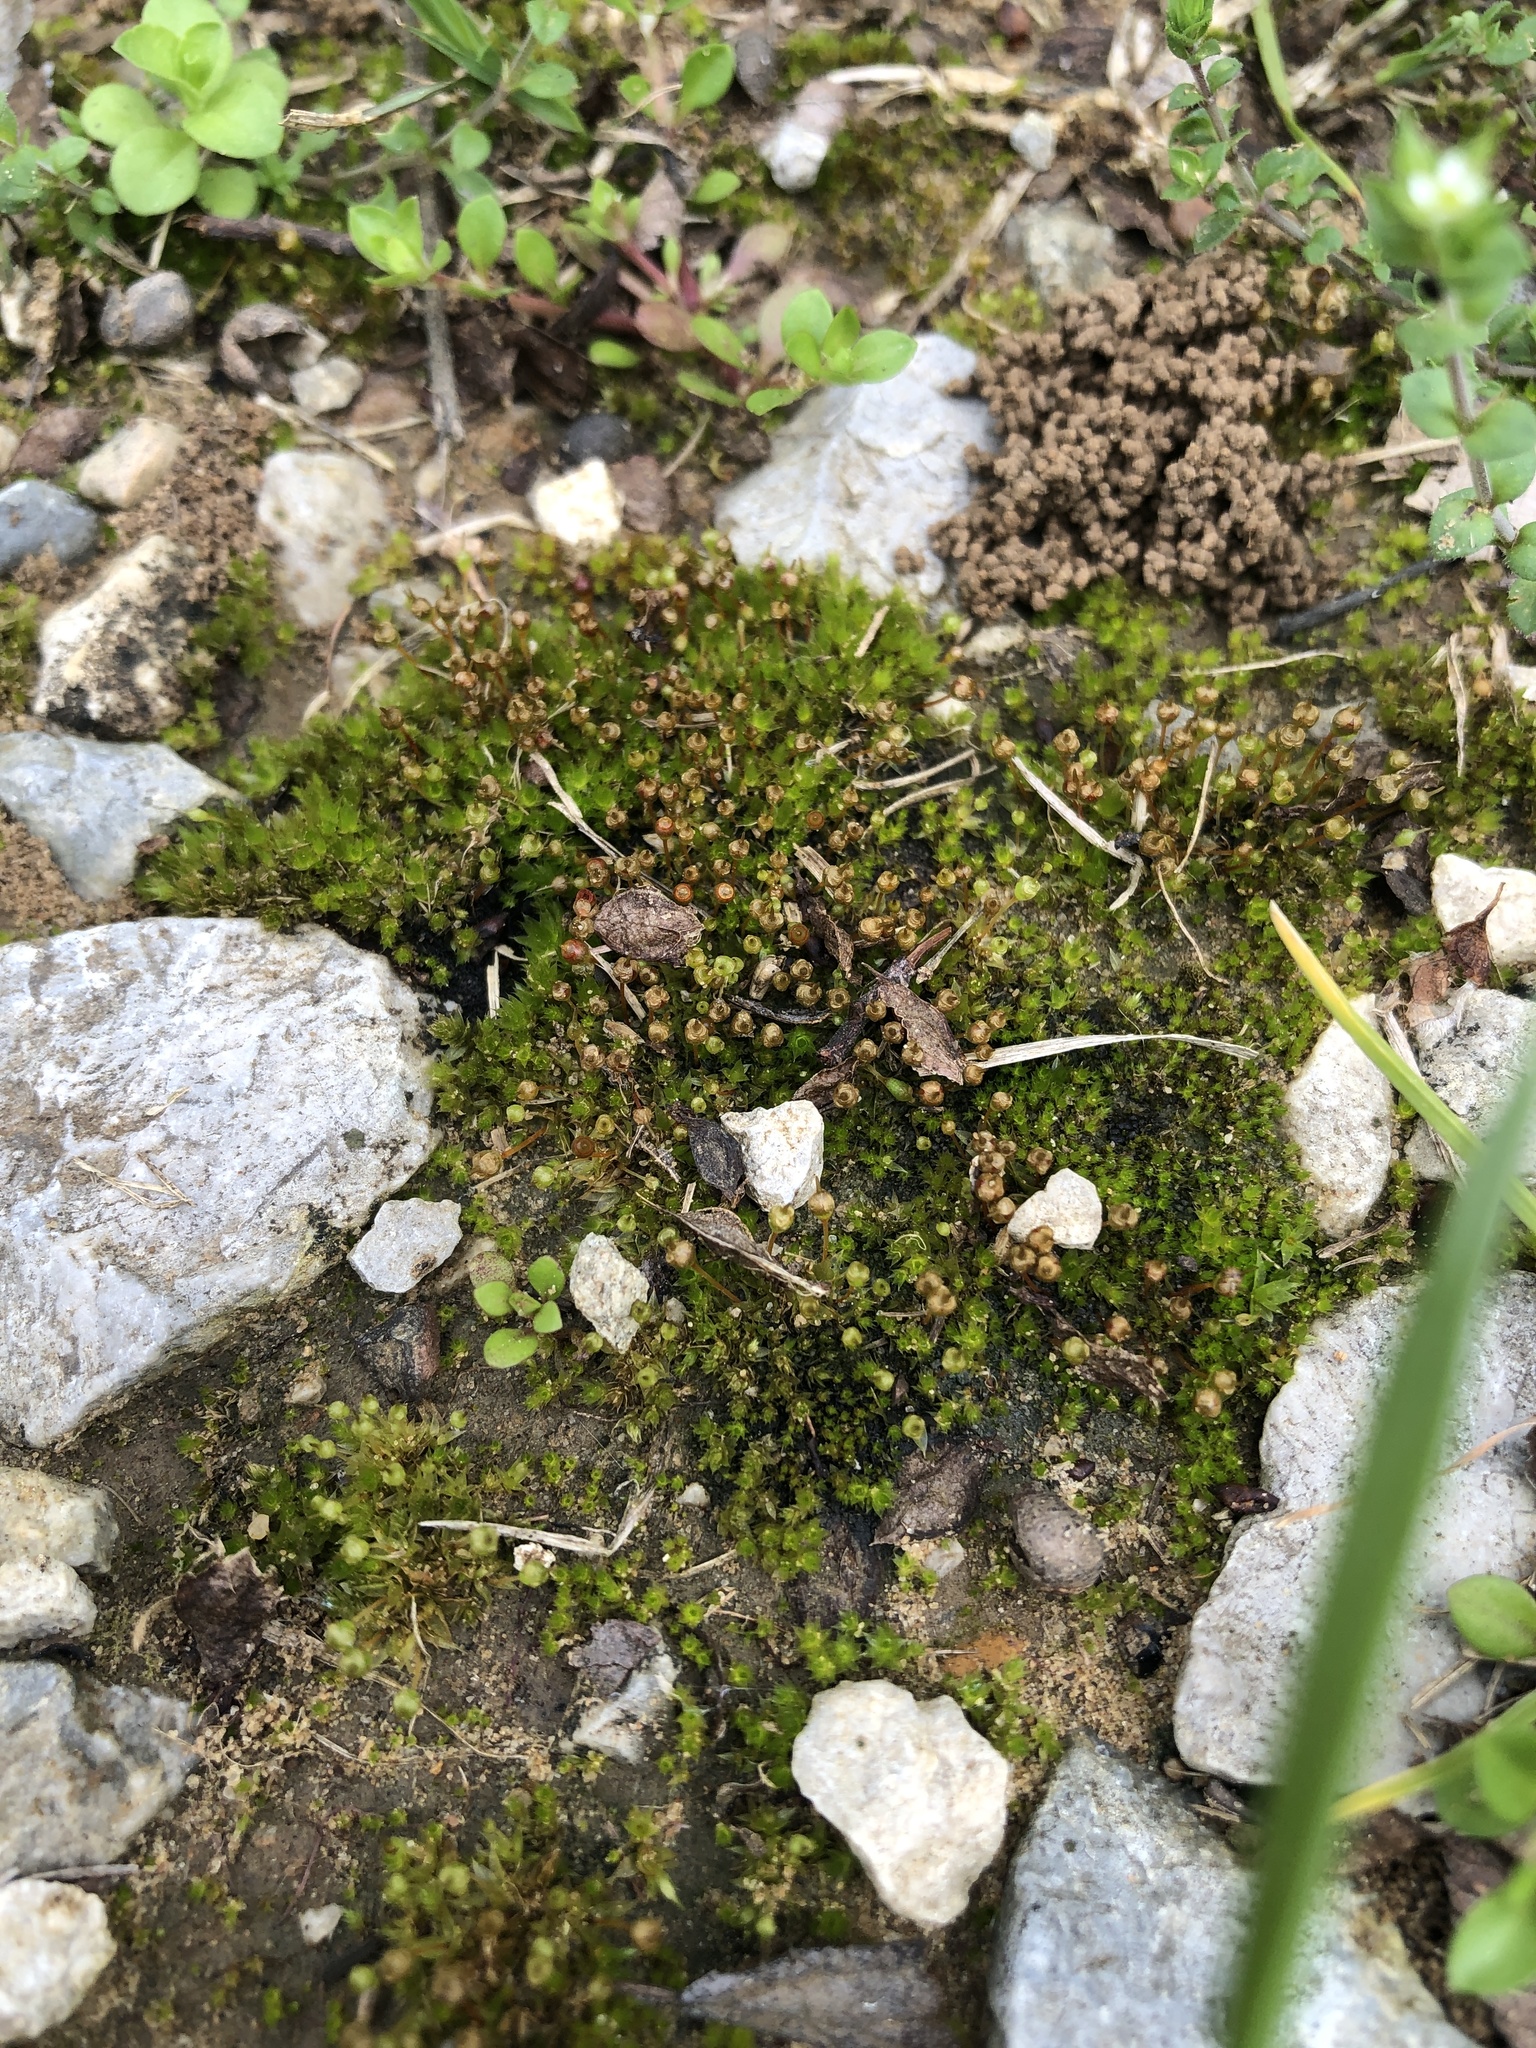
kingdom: Plantae
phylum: Bryophyta
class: Bryopsida
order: Funariales
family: Funariaceae
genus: Physcomitrium
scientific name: Physcomitrium pyriforme
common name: Common bladder-moss
